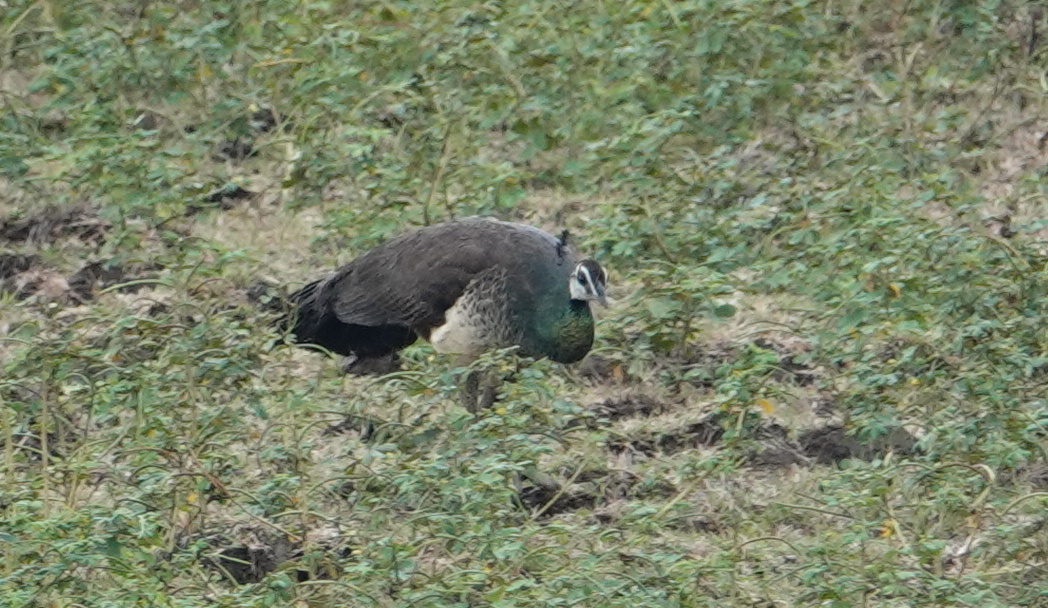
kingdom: Animalia
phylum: Chordata
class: Aves
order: Galliformes
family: Phasianidae
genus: Pavo
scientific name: Pavo cristatus
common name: Indian peafowl
